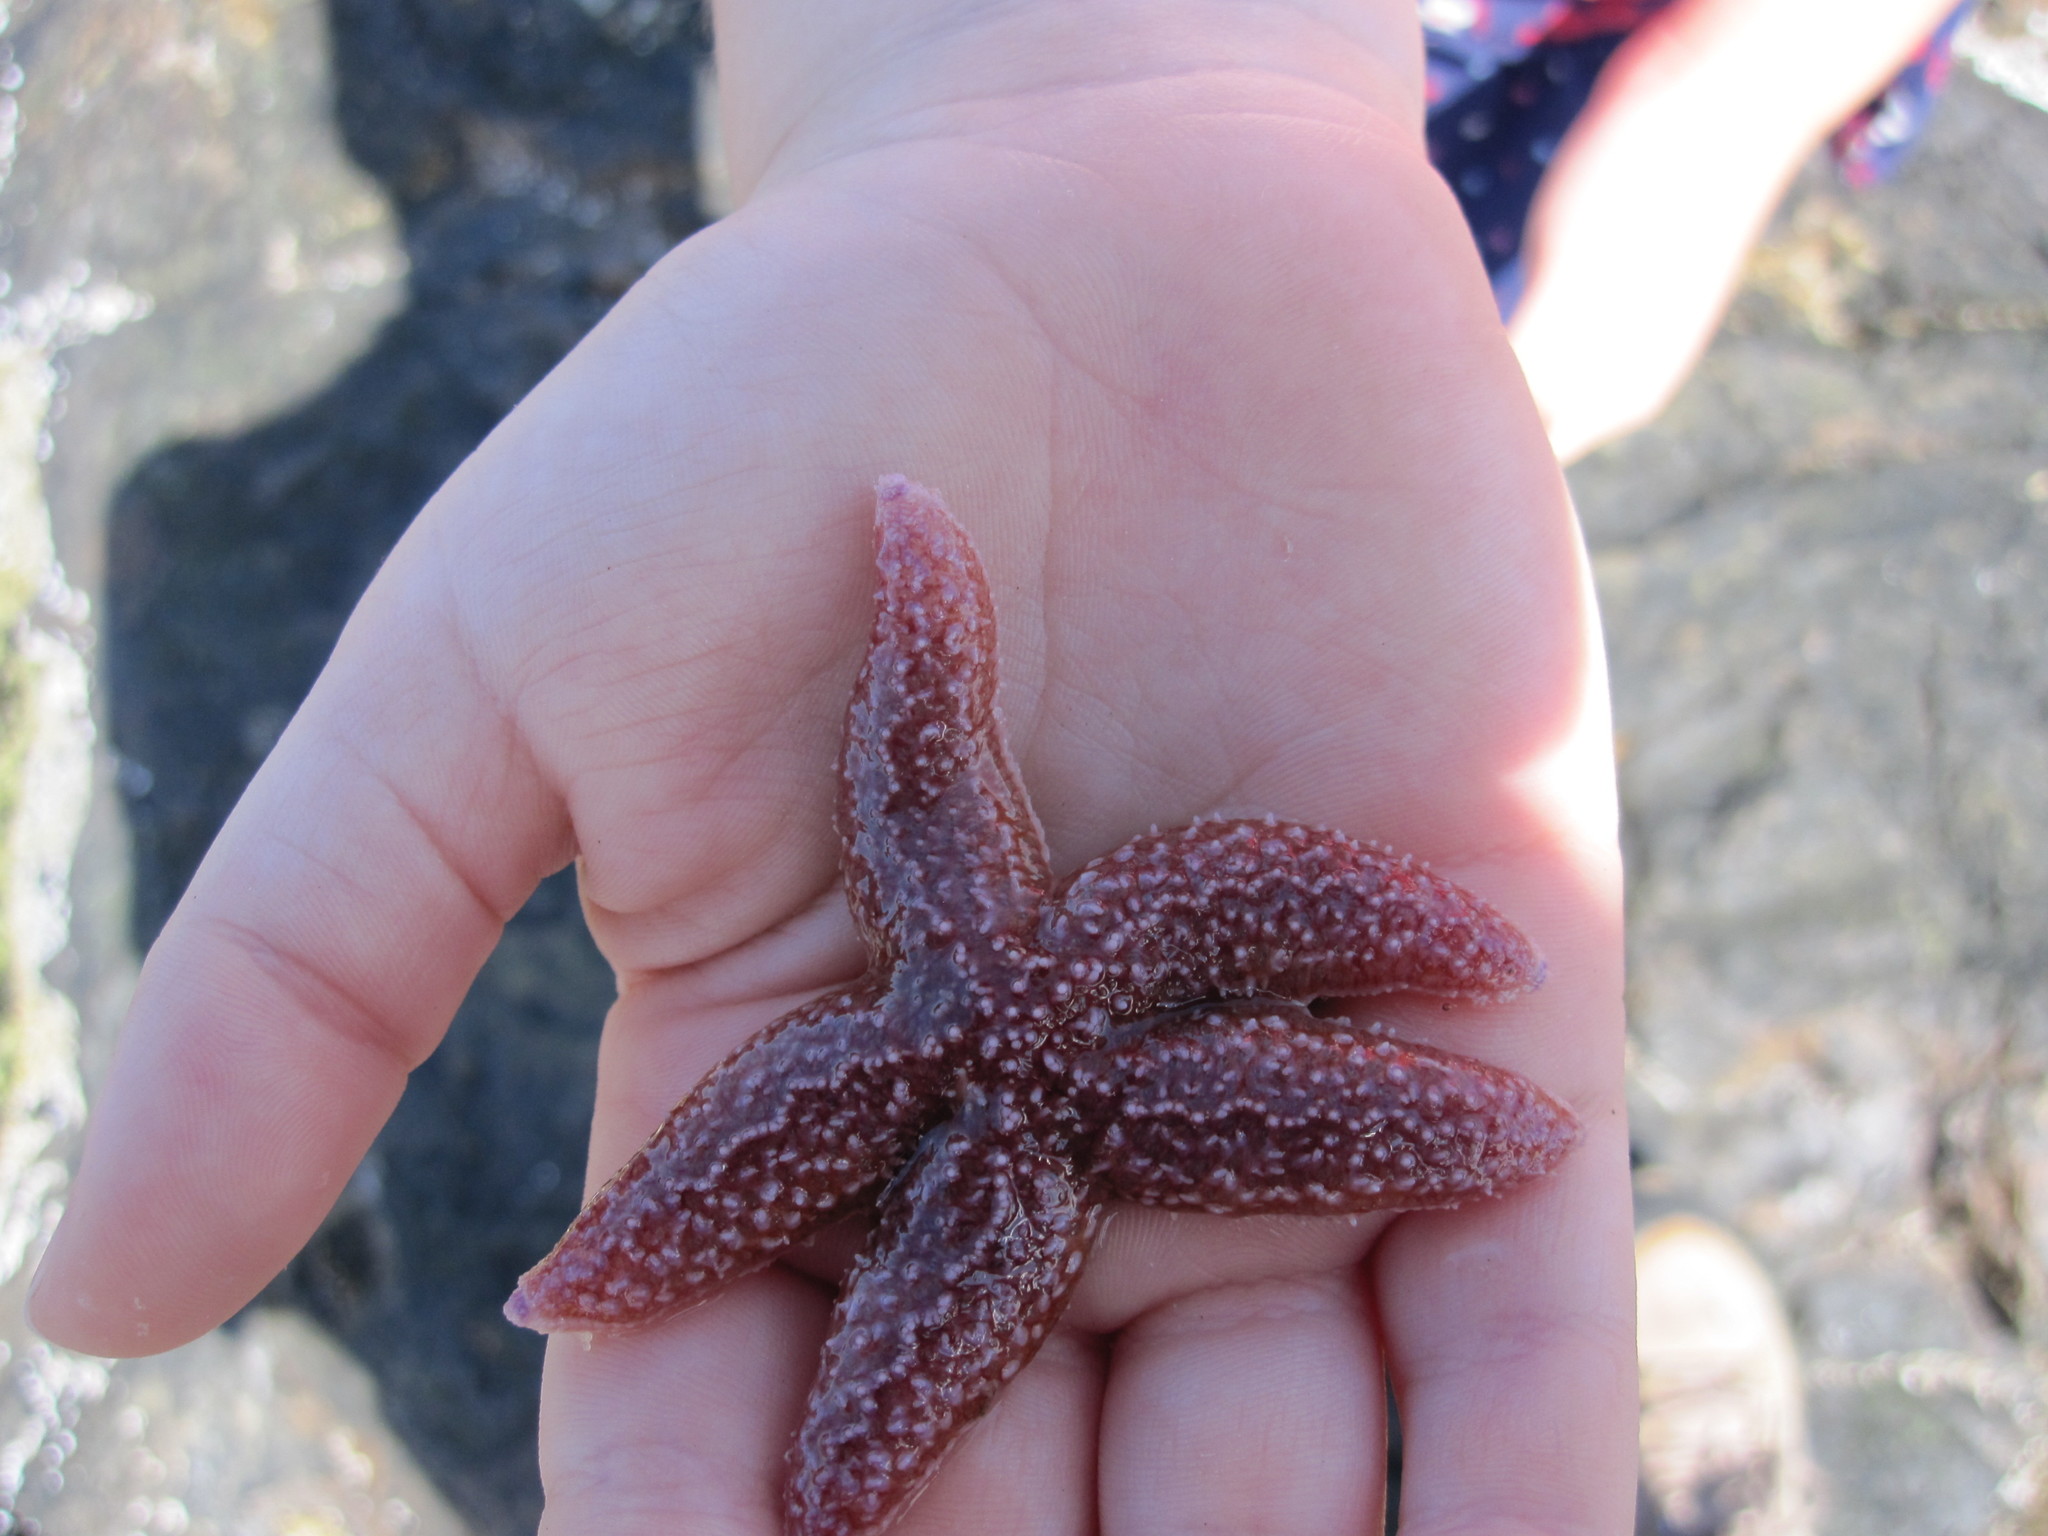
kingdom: Animalia
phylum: Echinodermata
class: Asteroidea
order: Forcipulatida
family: Asteriidae
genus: Asterias
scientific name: Asterias
